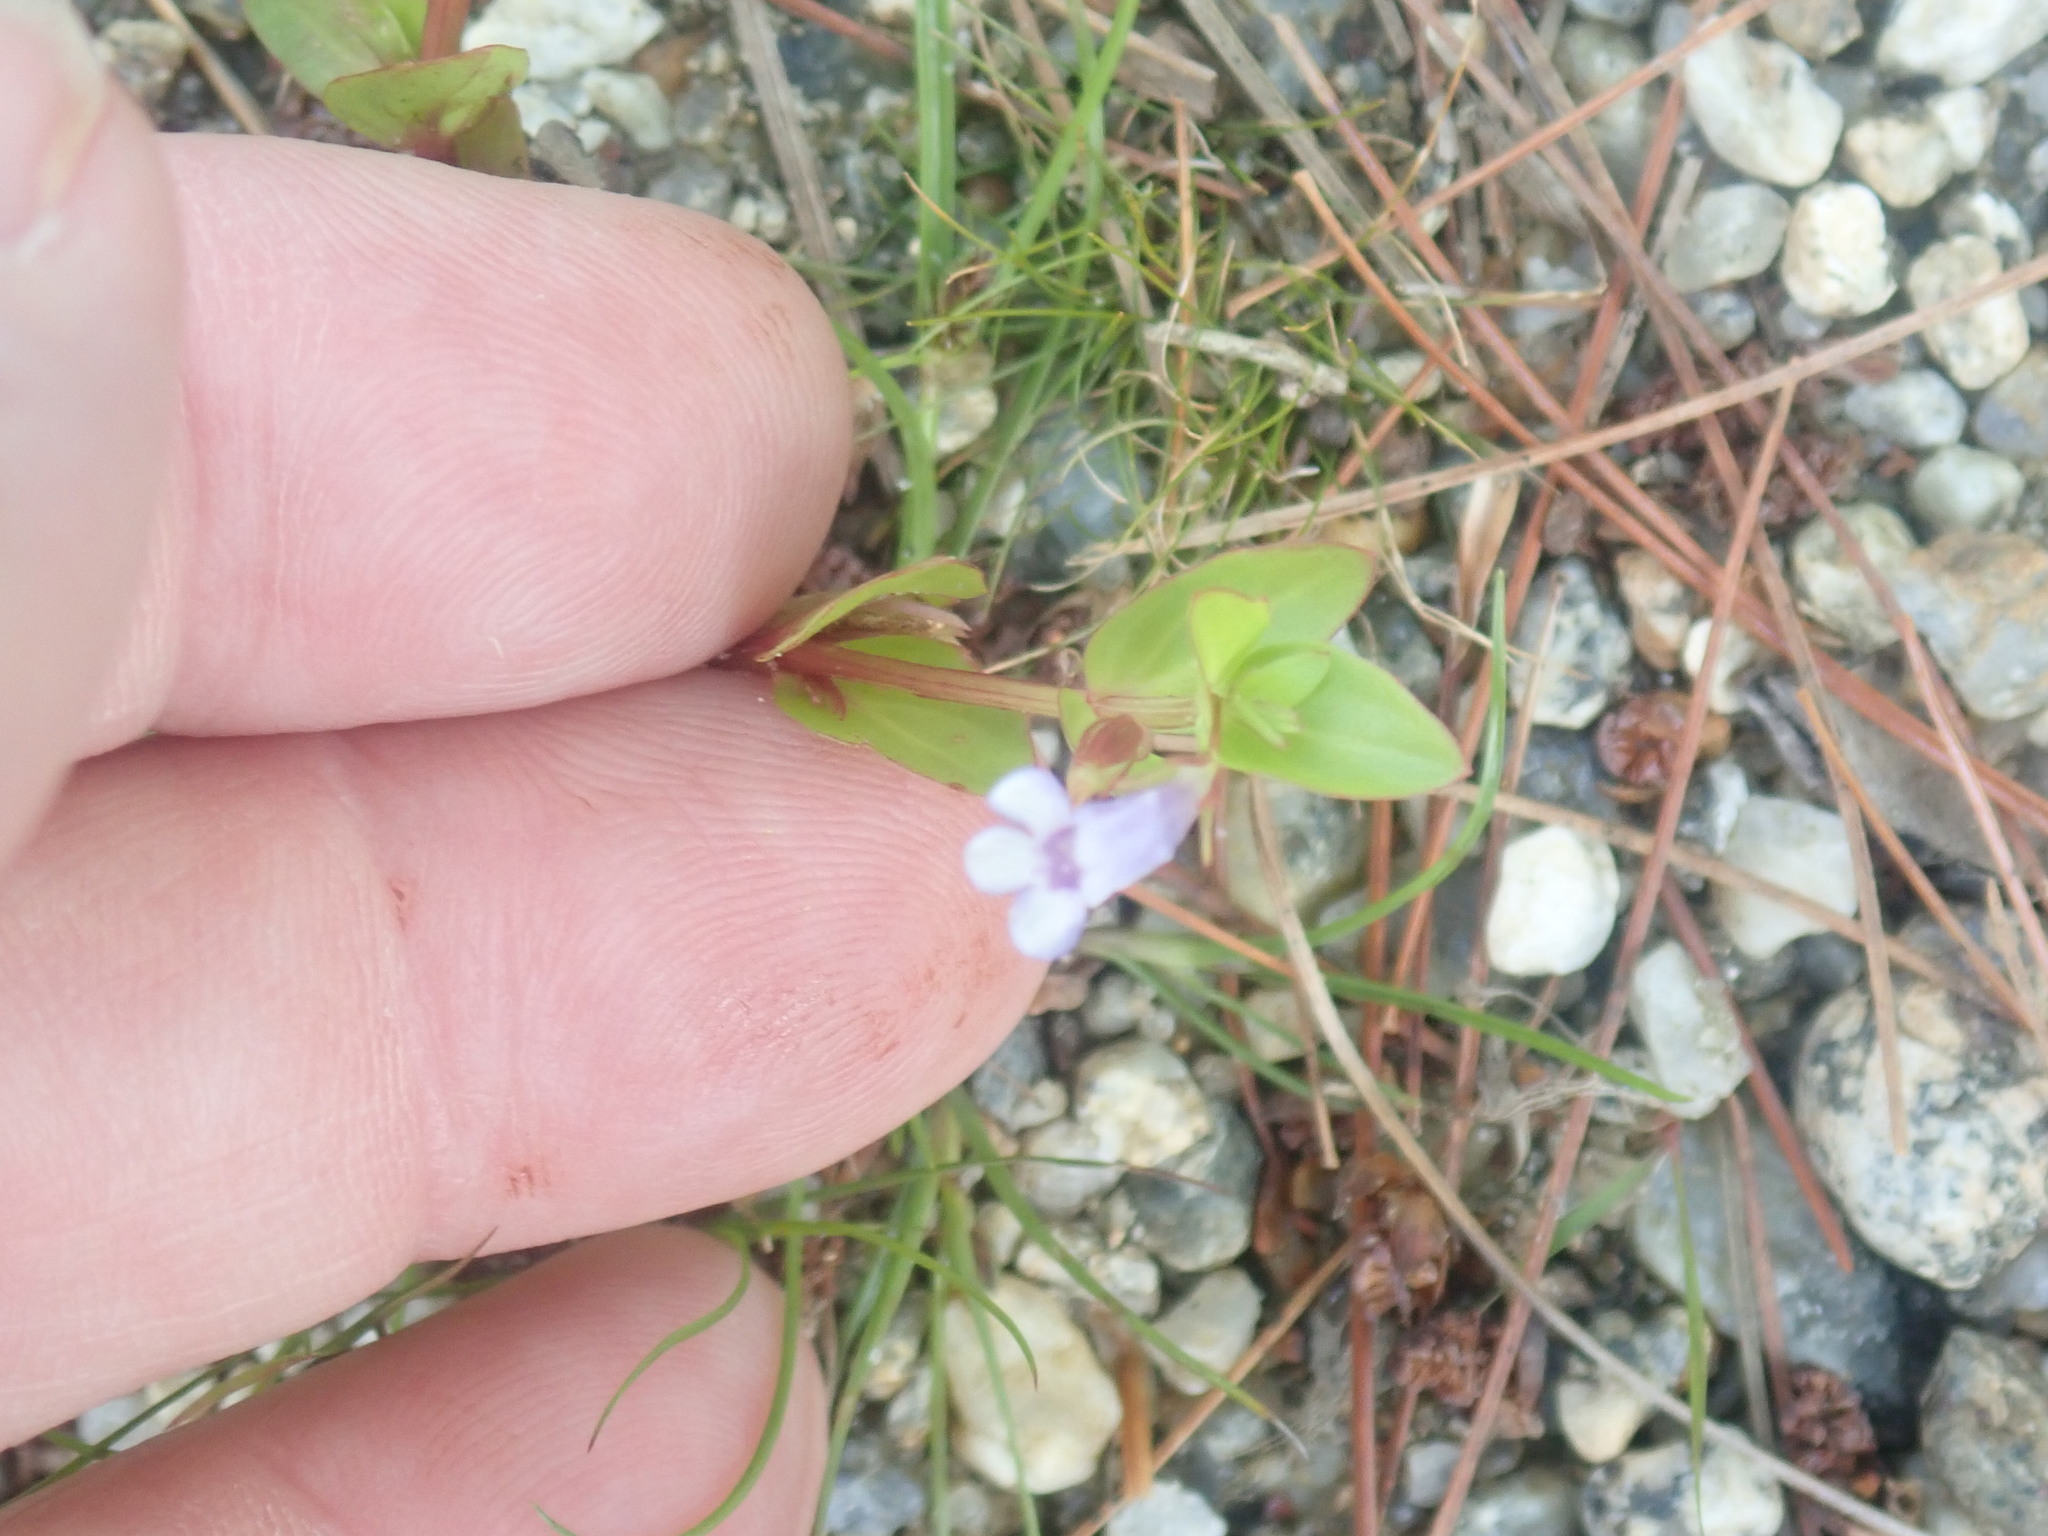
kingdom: Plantae
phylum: Tracheophyta
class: Magnoliopsida
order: Lamiales
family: Linderniaceae
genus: Lindernia
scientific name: Lindernia dubia
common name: Annual false pimpernel
